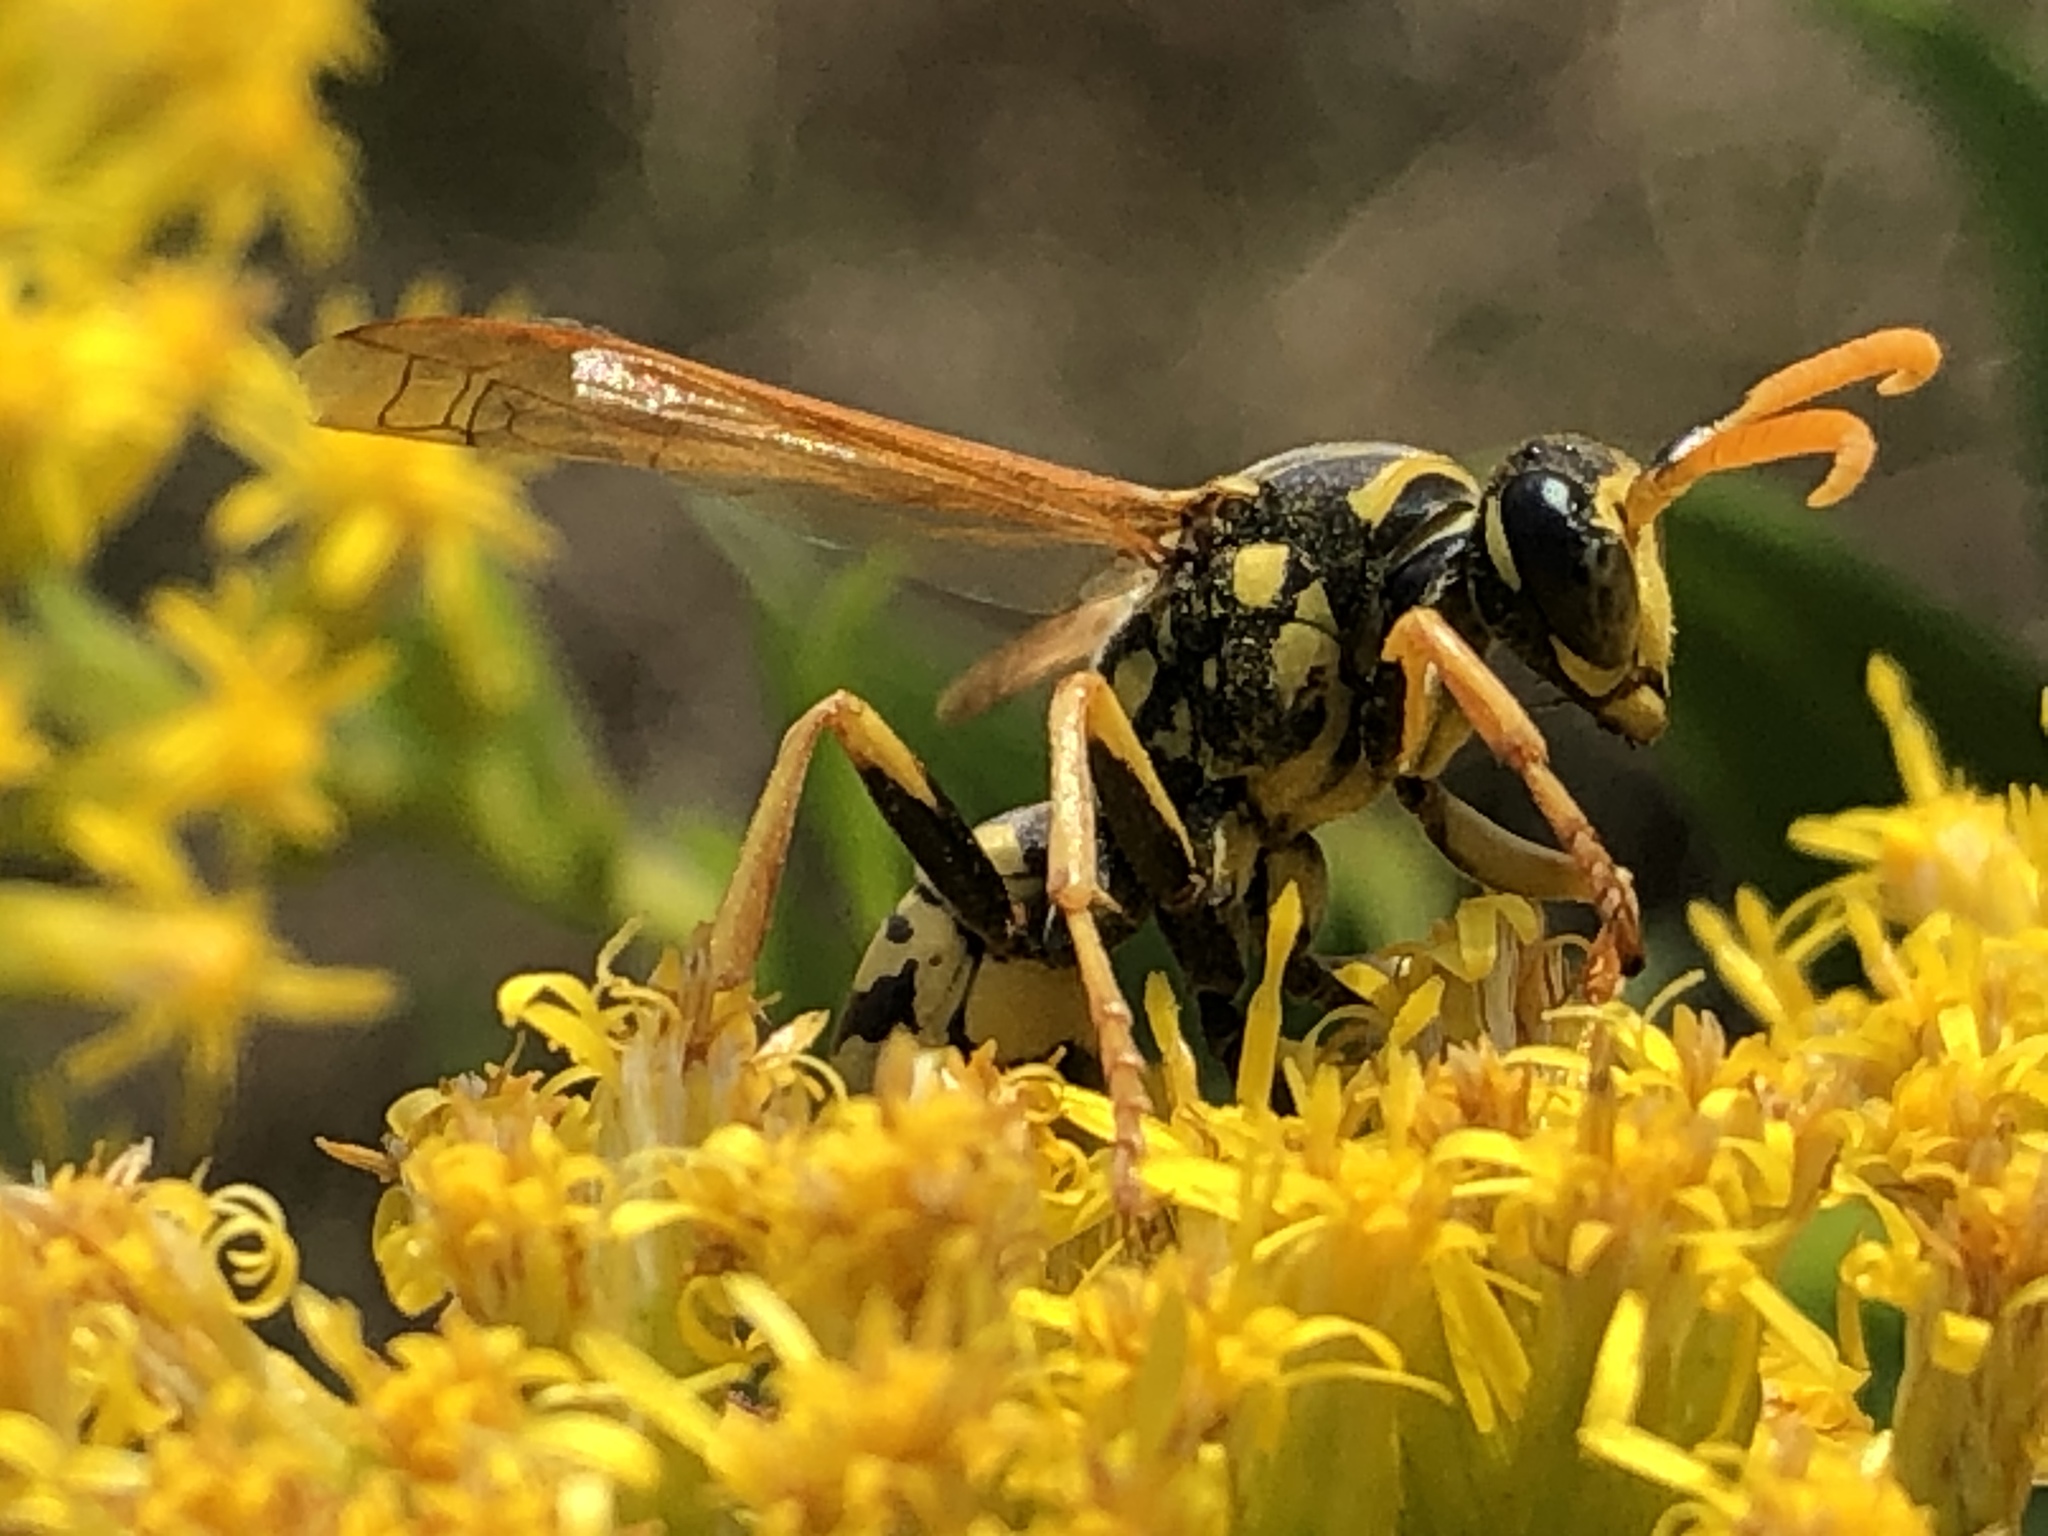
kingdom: Animalia
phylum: Arthropoda
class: Insecta
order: Hymenoptera
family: Eumenidae
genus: Polistes
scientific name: Polistes dominula
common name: Paper wasp
